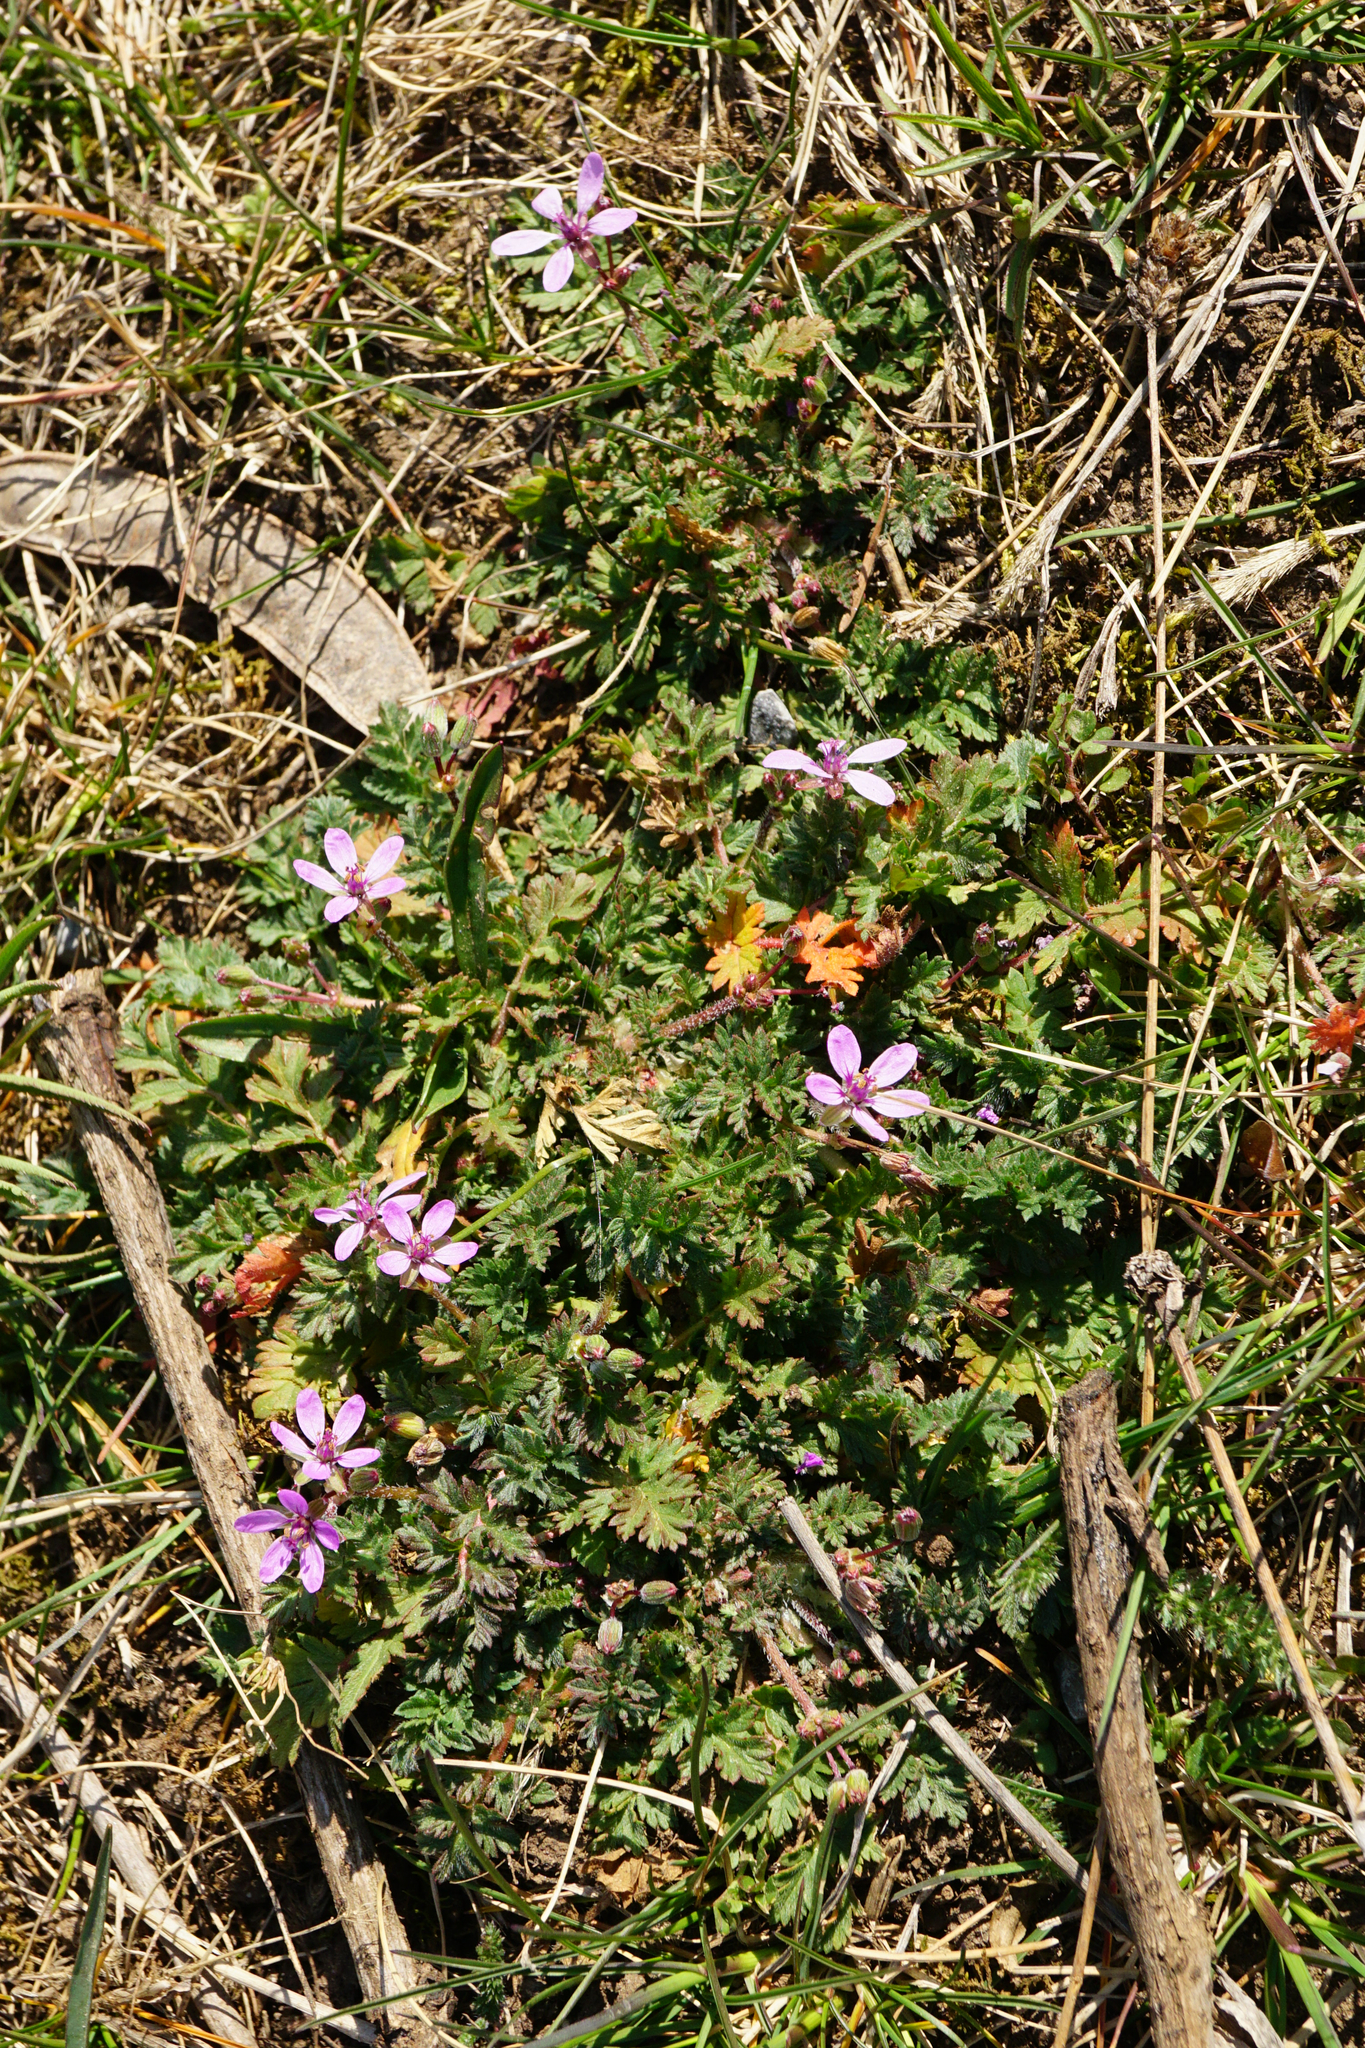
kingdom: Plantae
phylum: Tracheophyta
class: Magnoliopsida
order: Geraniales
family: Geraniaceae
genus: Erodium
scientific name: Erodium cicutarium
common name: Common stork's-bill
